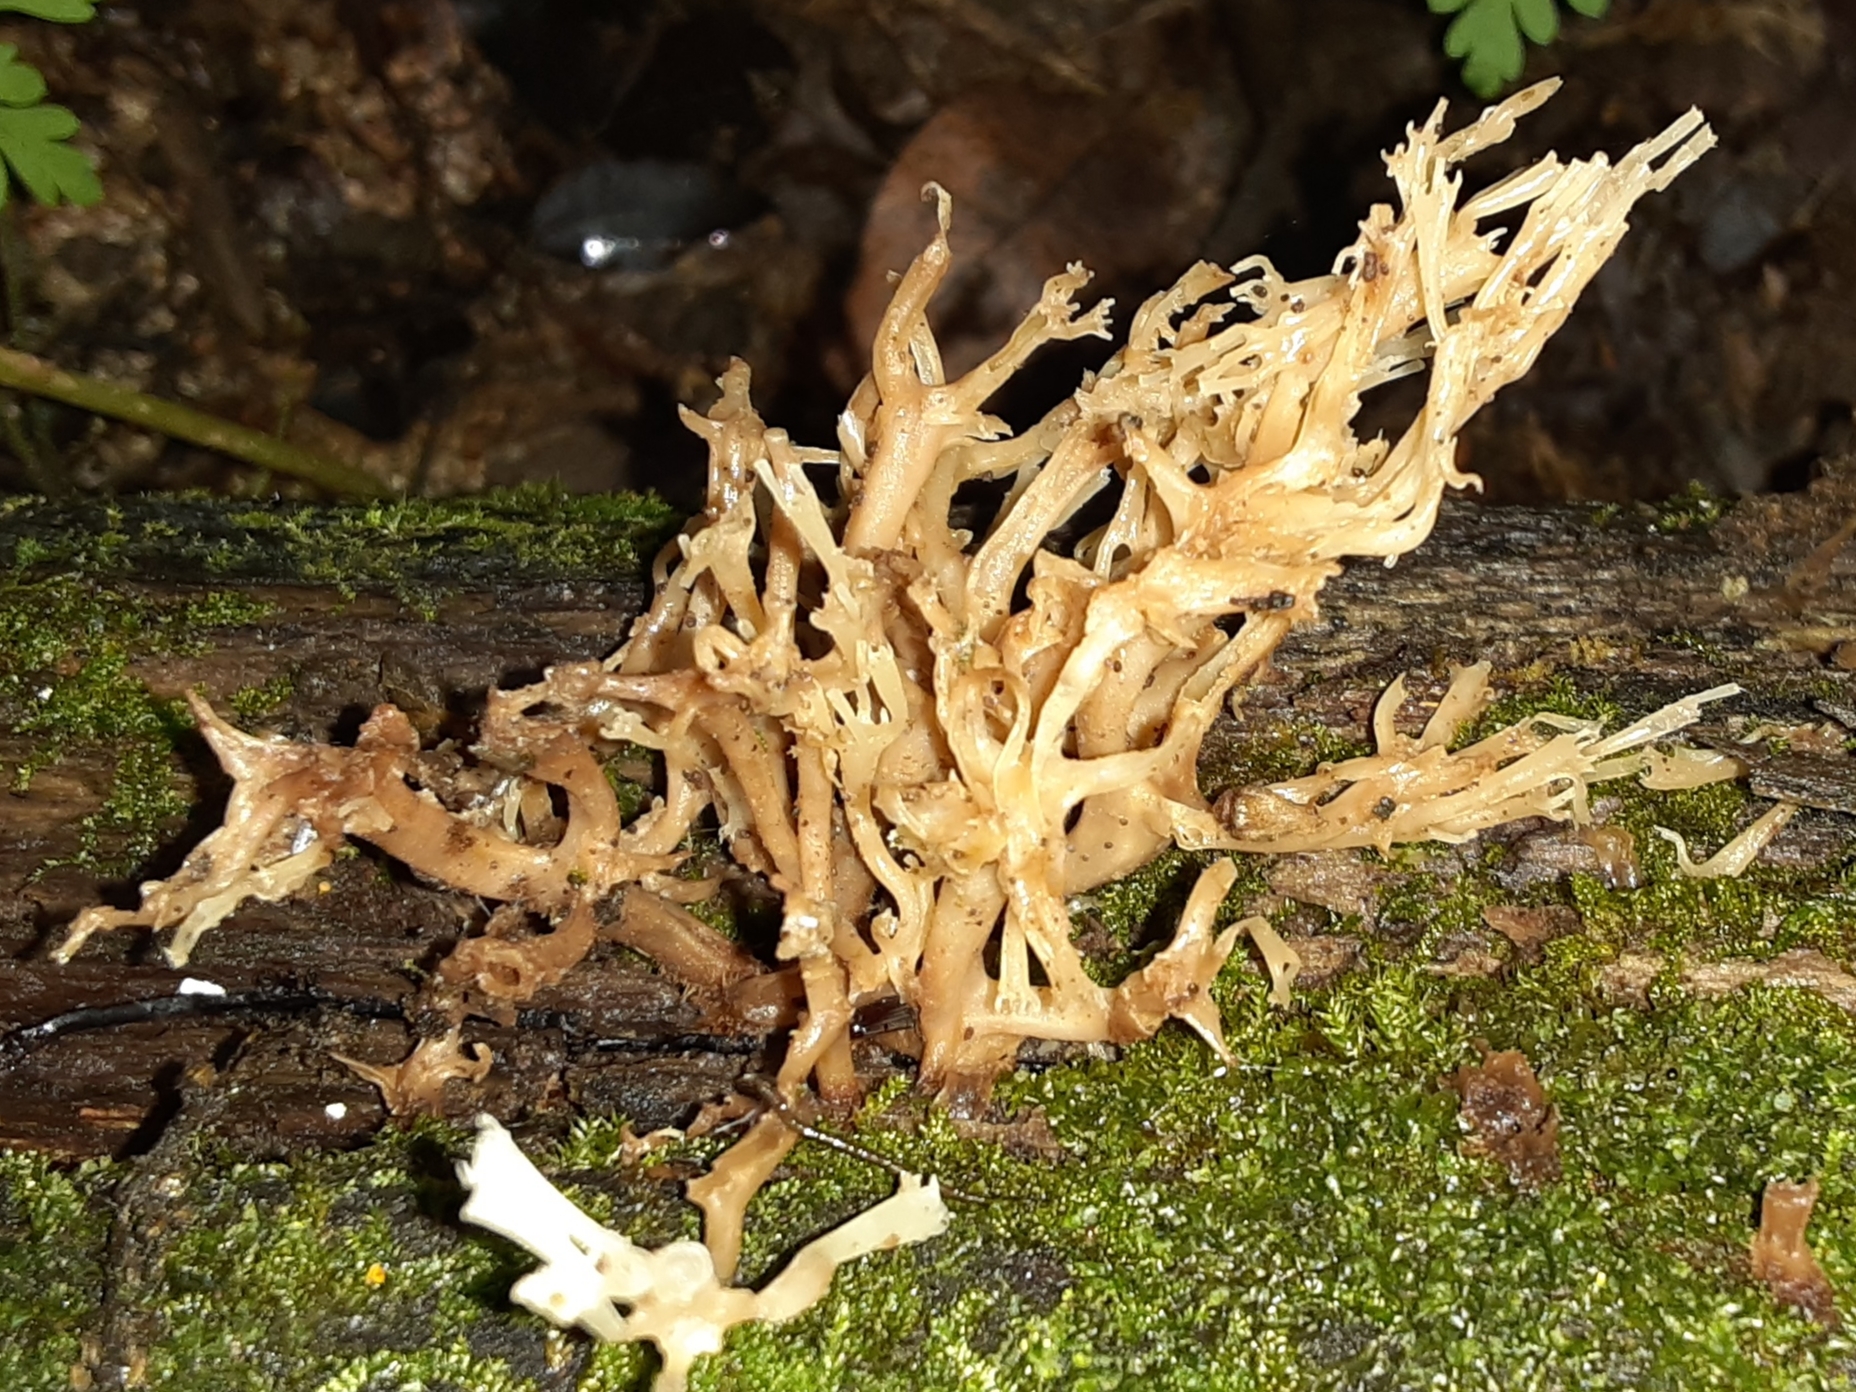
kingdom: Fungi
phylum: Basidiomycota
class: Agaricomycetes
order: Russulales
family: Auriscalpiaceae
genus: Artomyces
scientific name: Artomyces pyxidatus
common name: Crown-tipped coral fungus
